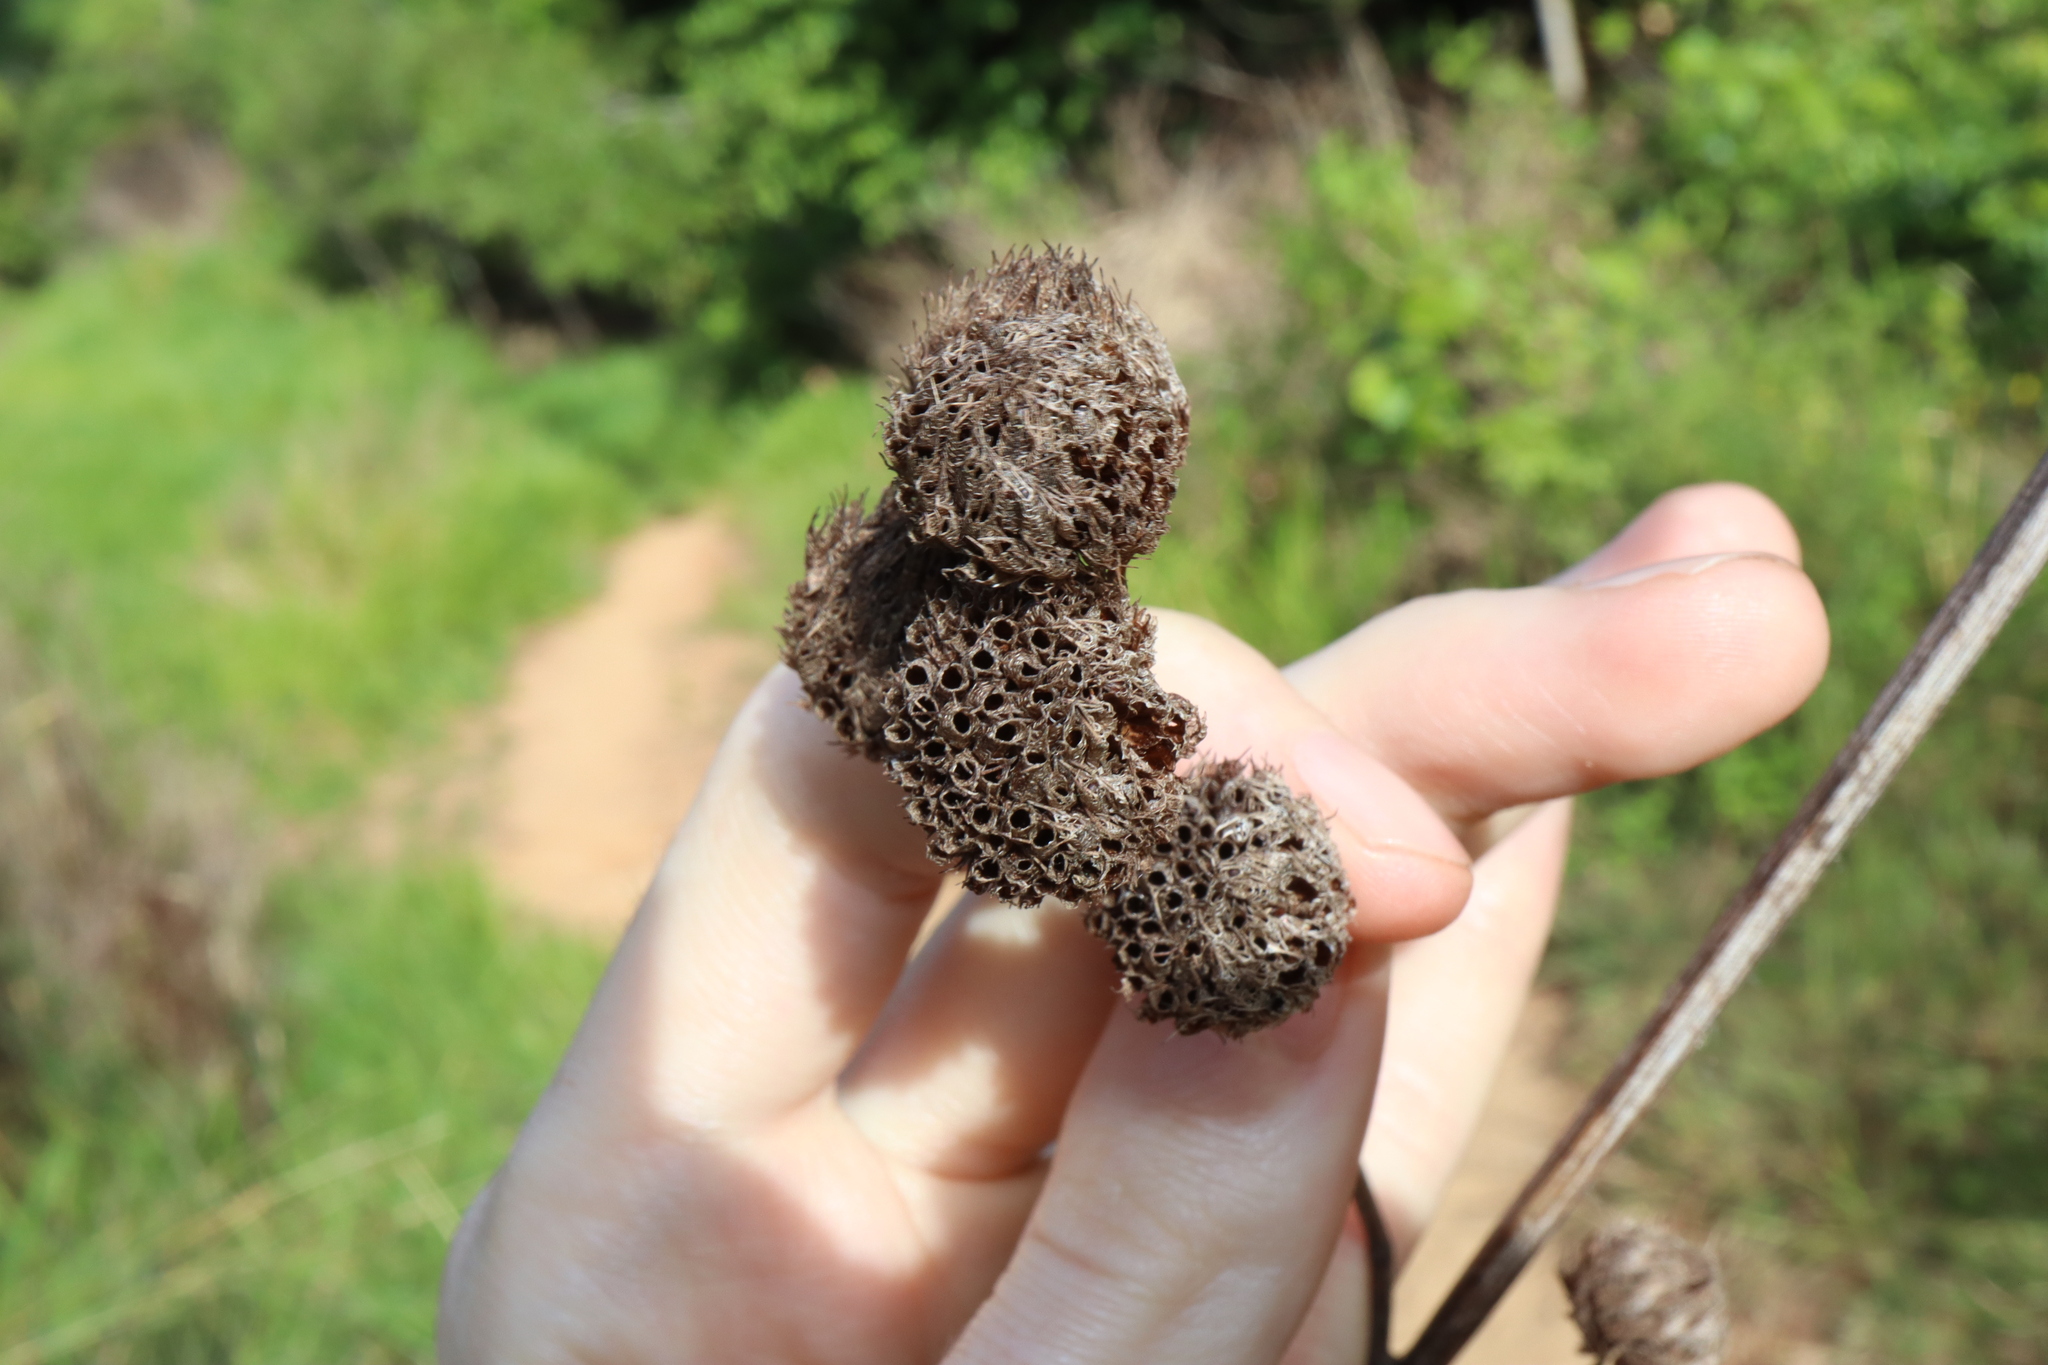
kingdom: Plantae
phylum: Tracheophyta
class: Magnoliopsida
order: Lamiales
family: Lamiaceae
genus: Hyptis
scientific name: Hyptis capitata
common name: False ironwort
